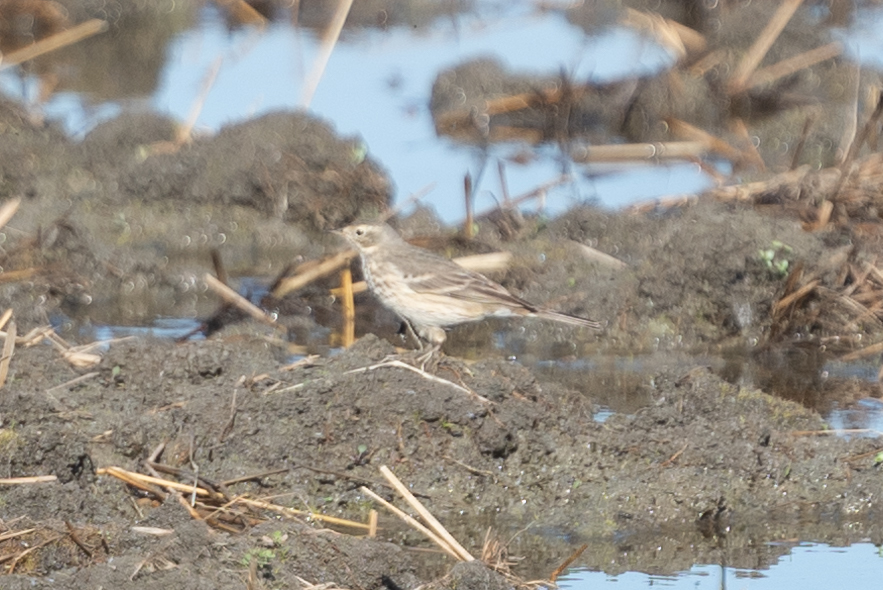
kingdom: Animalia
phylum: Chordata
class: Aves
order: Passeriformes
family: Motacillidae
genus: Anthus
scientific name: Anthus rubescens
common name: Buff-bellied pipit
